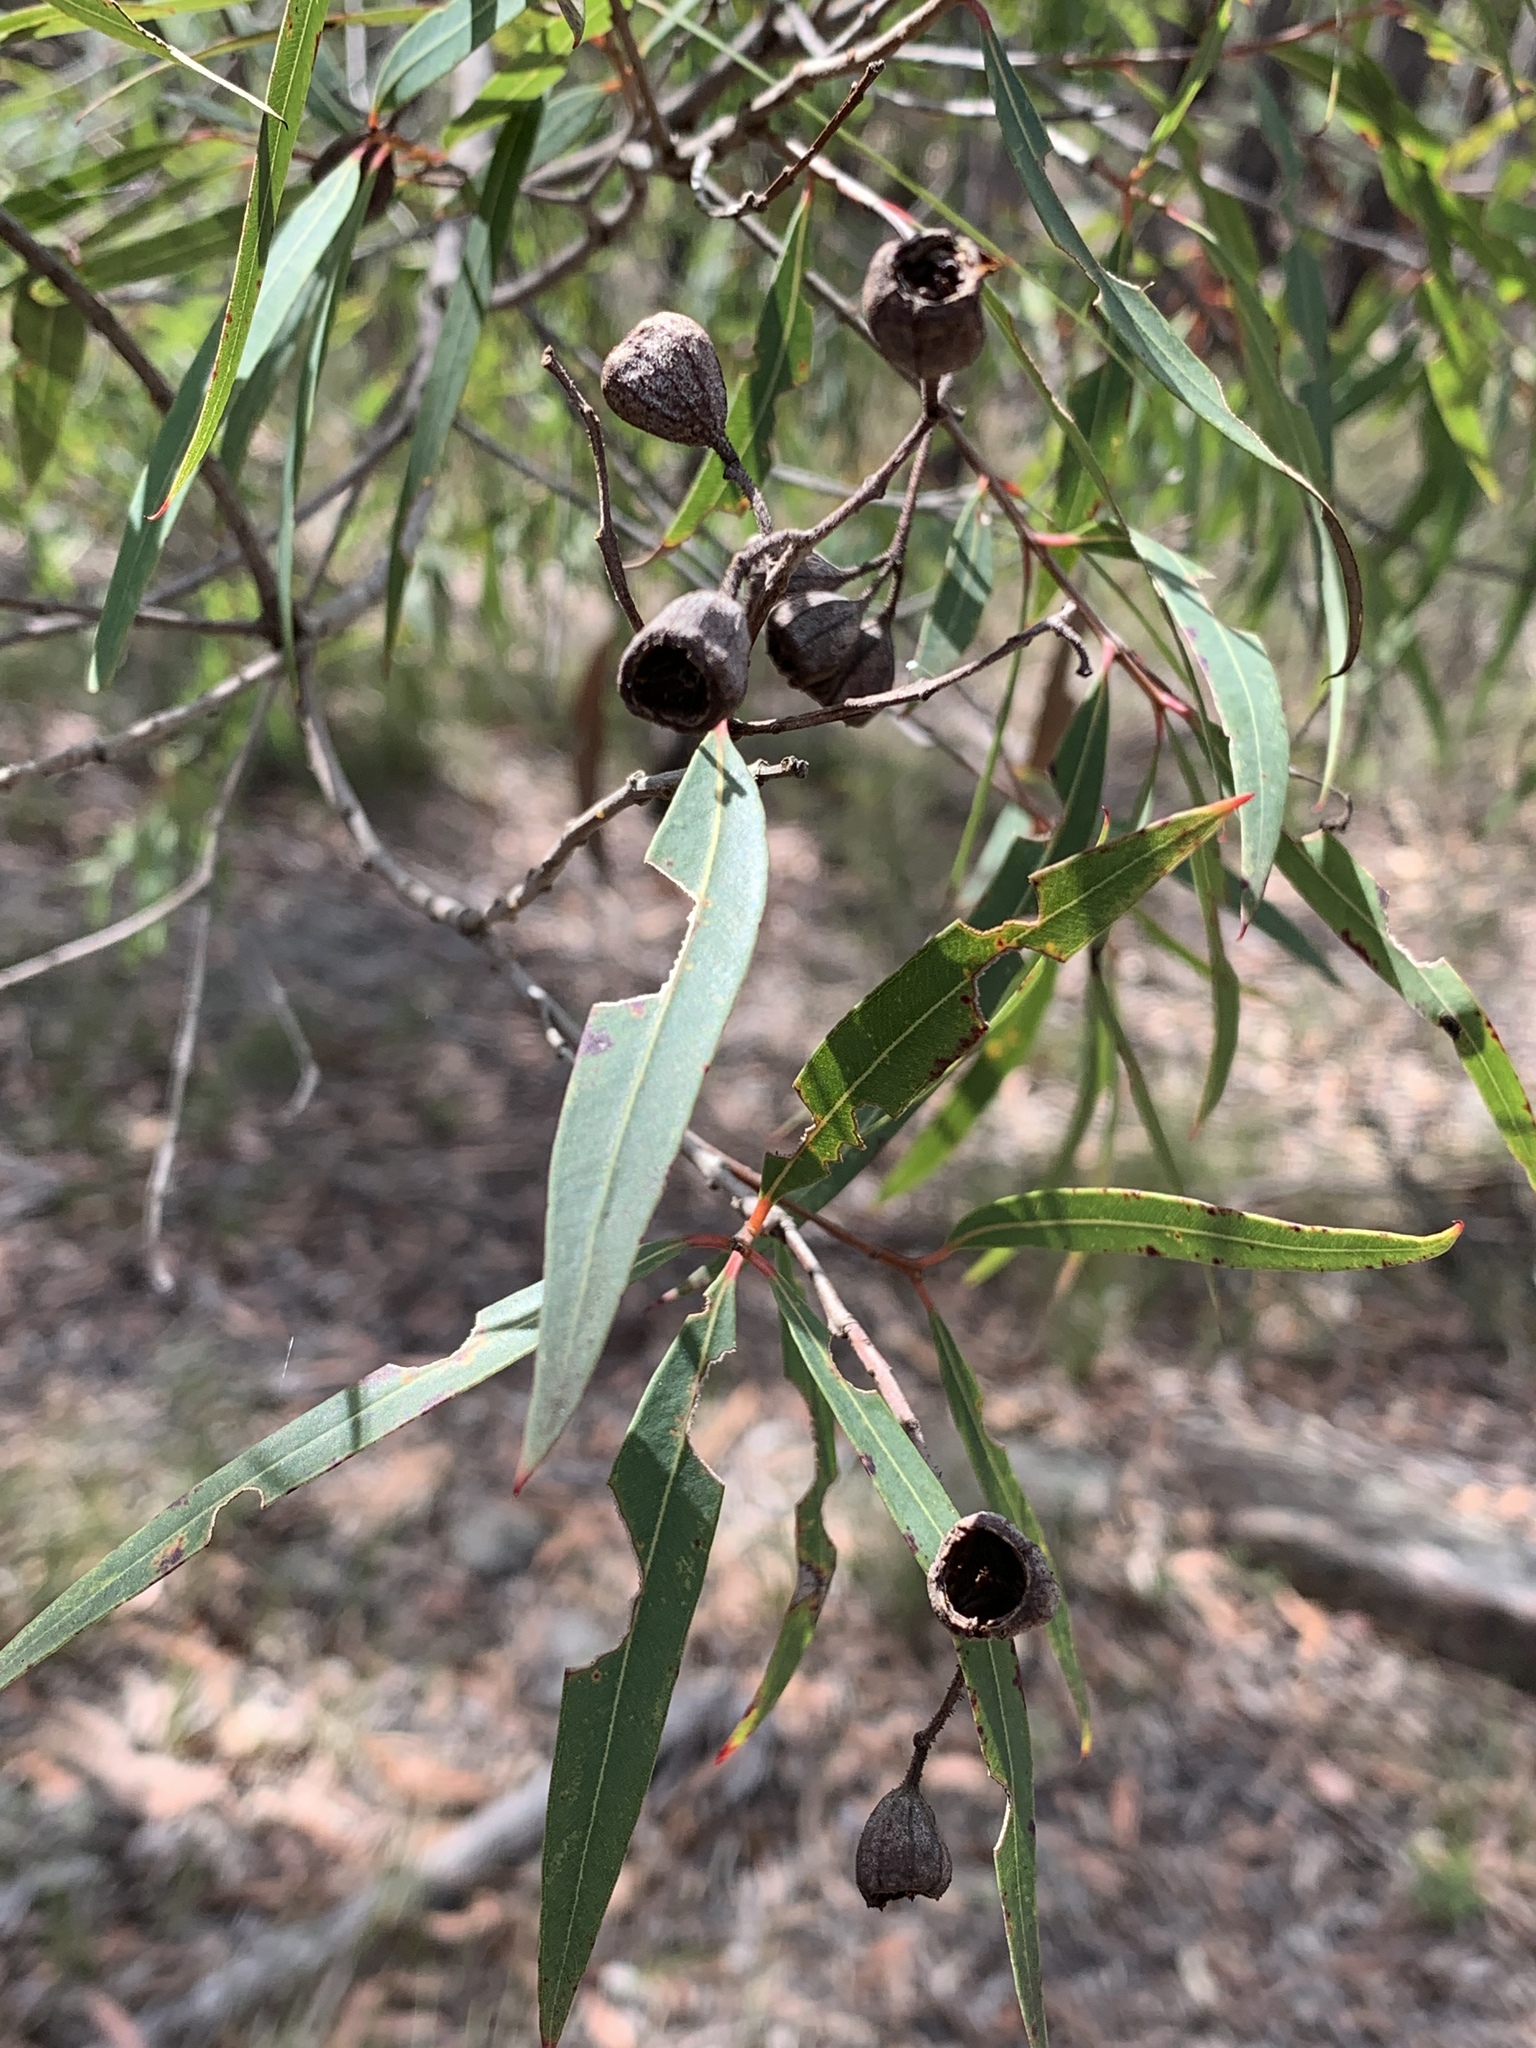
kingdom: Plantae
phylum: Tracheophyta
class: Magnoliopsida
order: Myrtales
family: Myrtaceae
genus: Angophora
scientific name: Angophora bakeri
